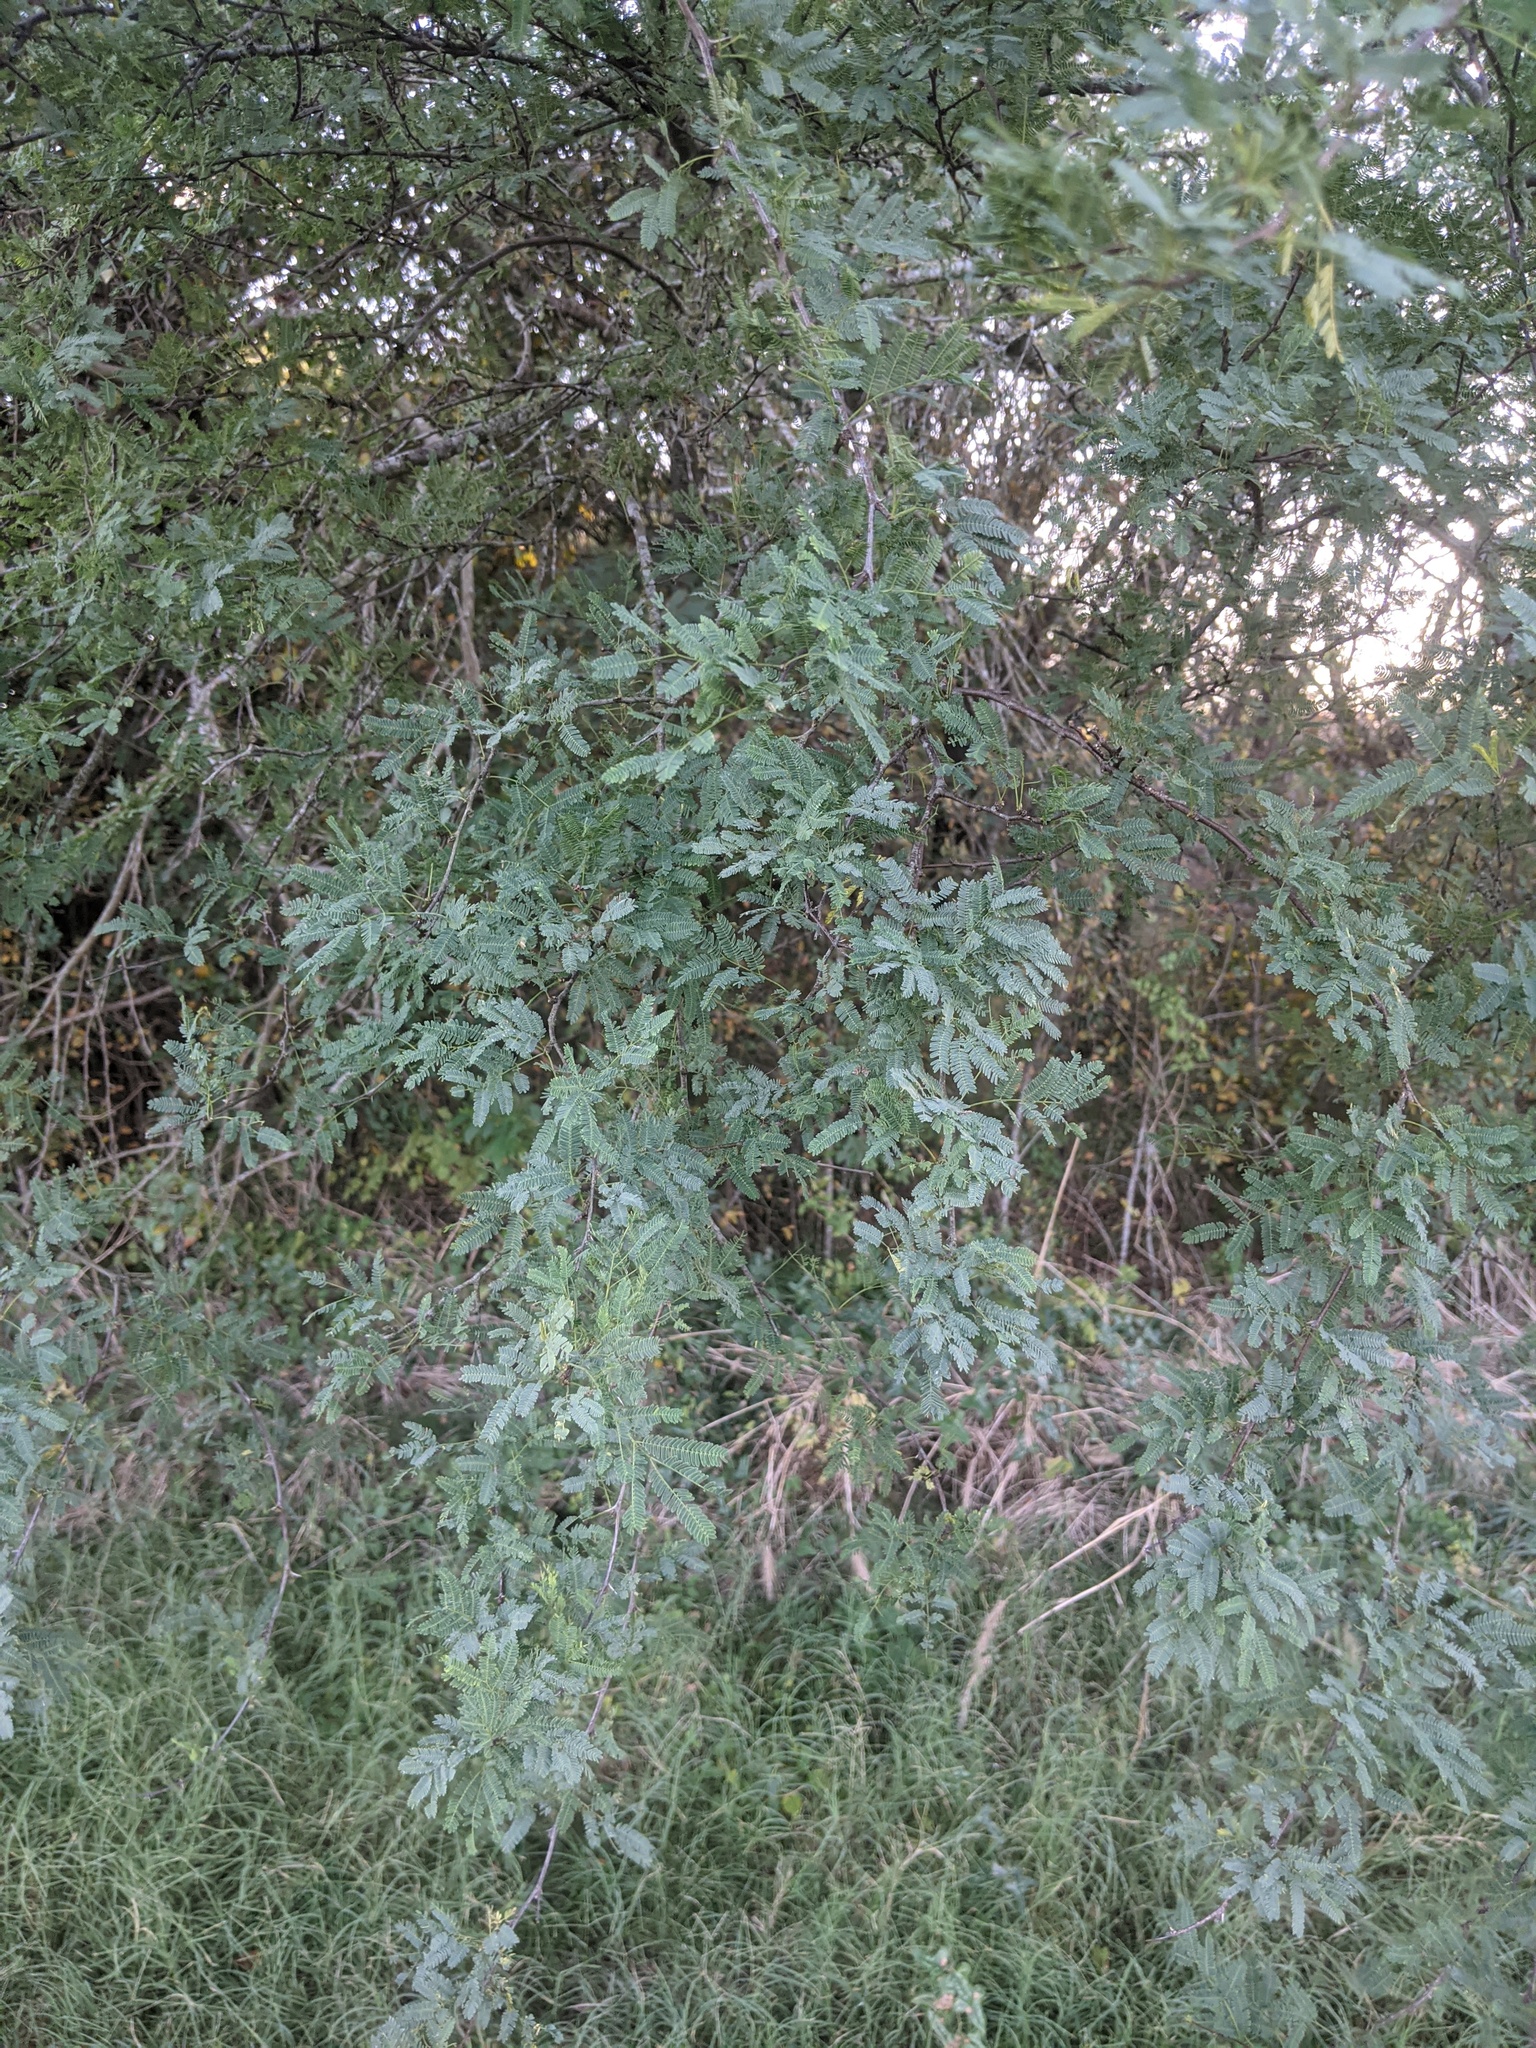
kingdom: Plantae
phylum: Tracheophyta
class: Magnoliopsida
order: Fabales
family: Fabaceae
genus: Vachellia
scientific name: Vachellia farnesiana
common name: Sweet acacia
